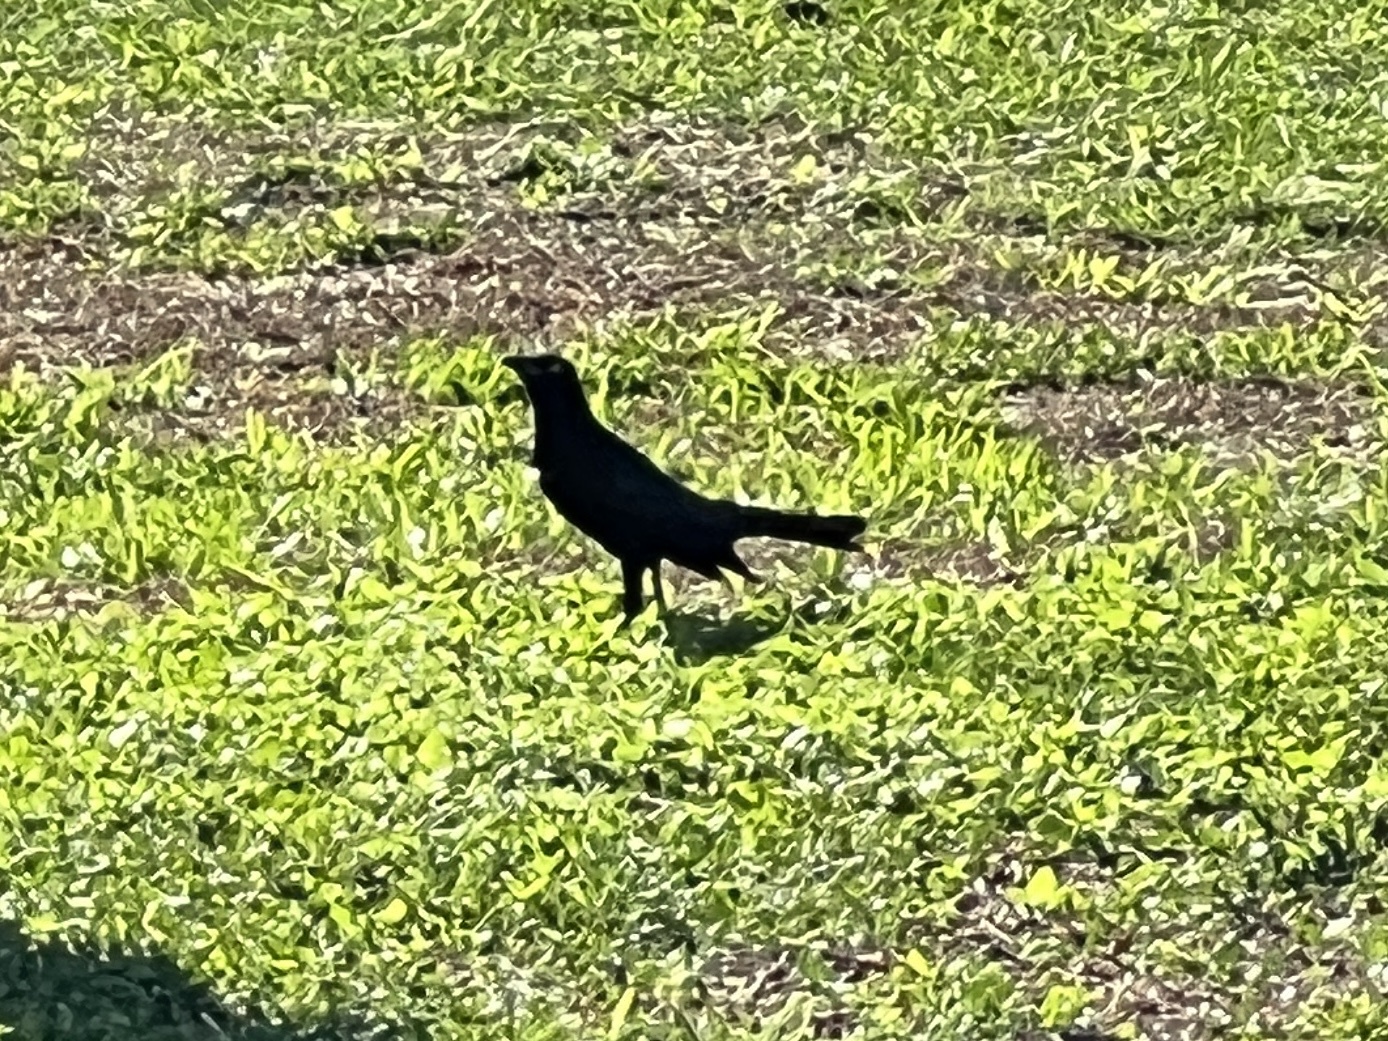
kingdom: Animalia
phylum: Chordata
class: Aves
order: Passeriformes
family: Icteridae
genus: Quiscalus
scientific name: Quiscalus mexicanus
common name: Great-tailed grackle
